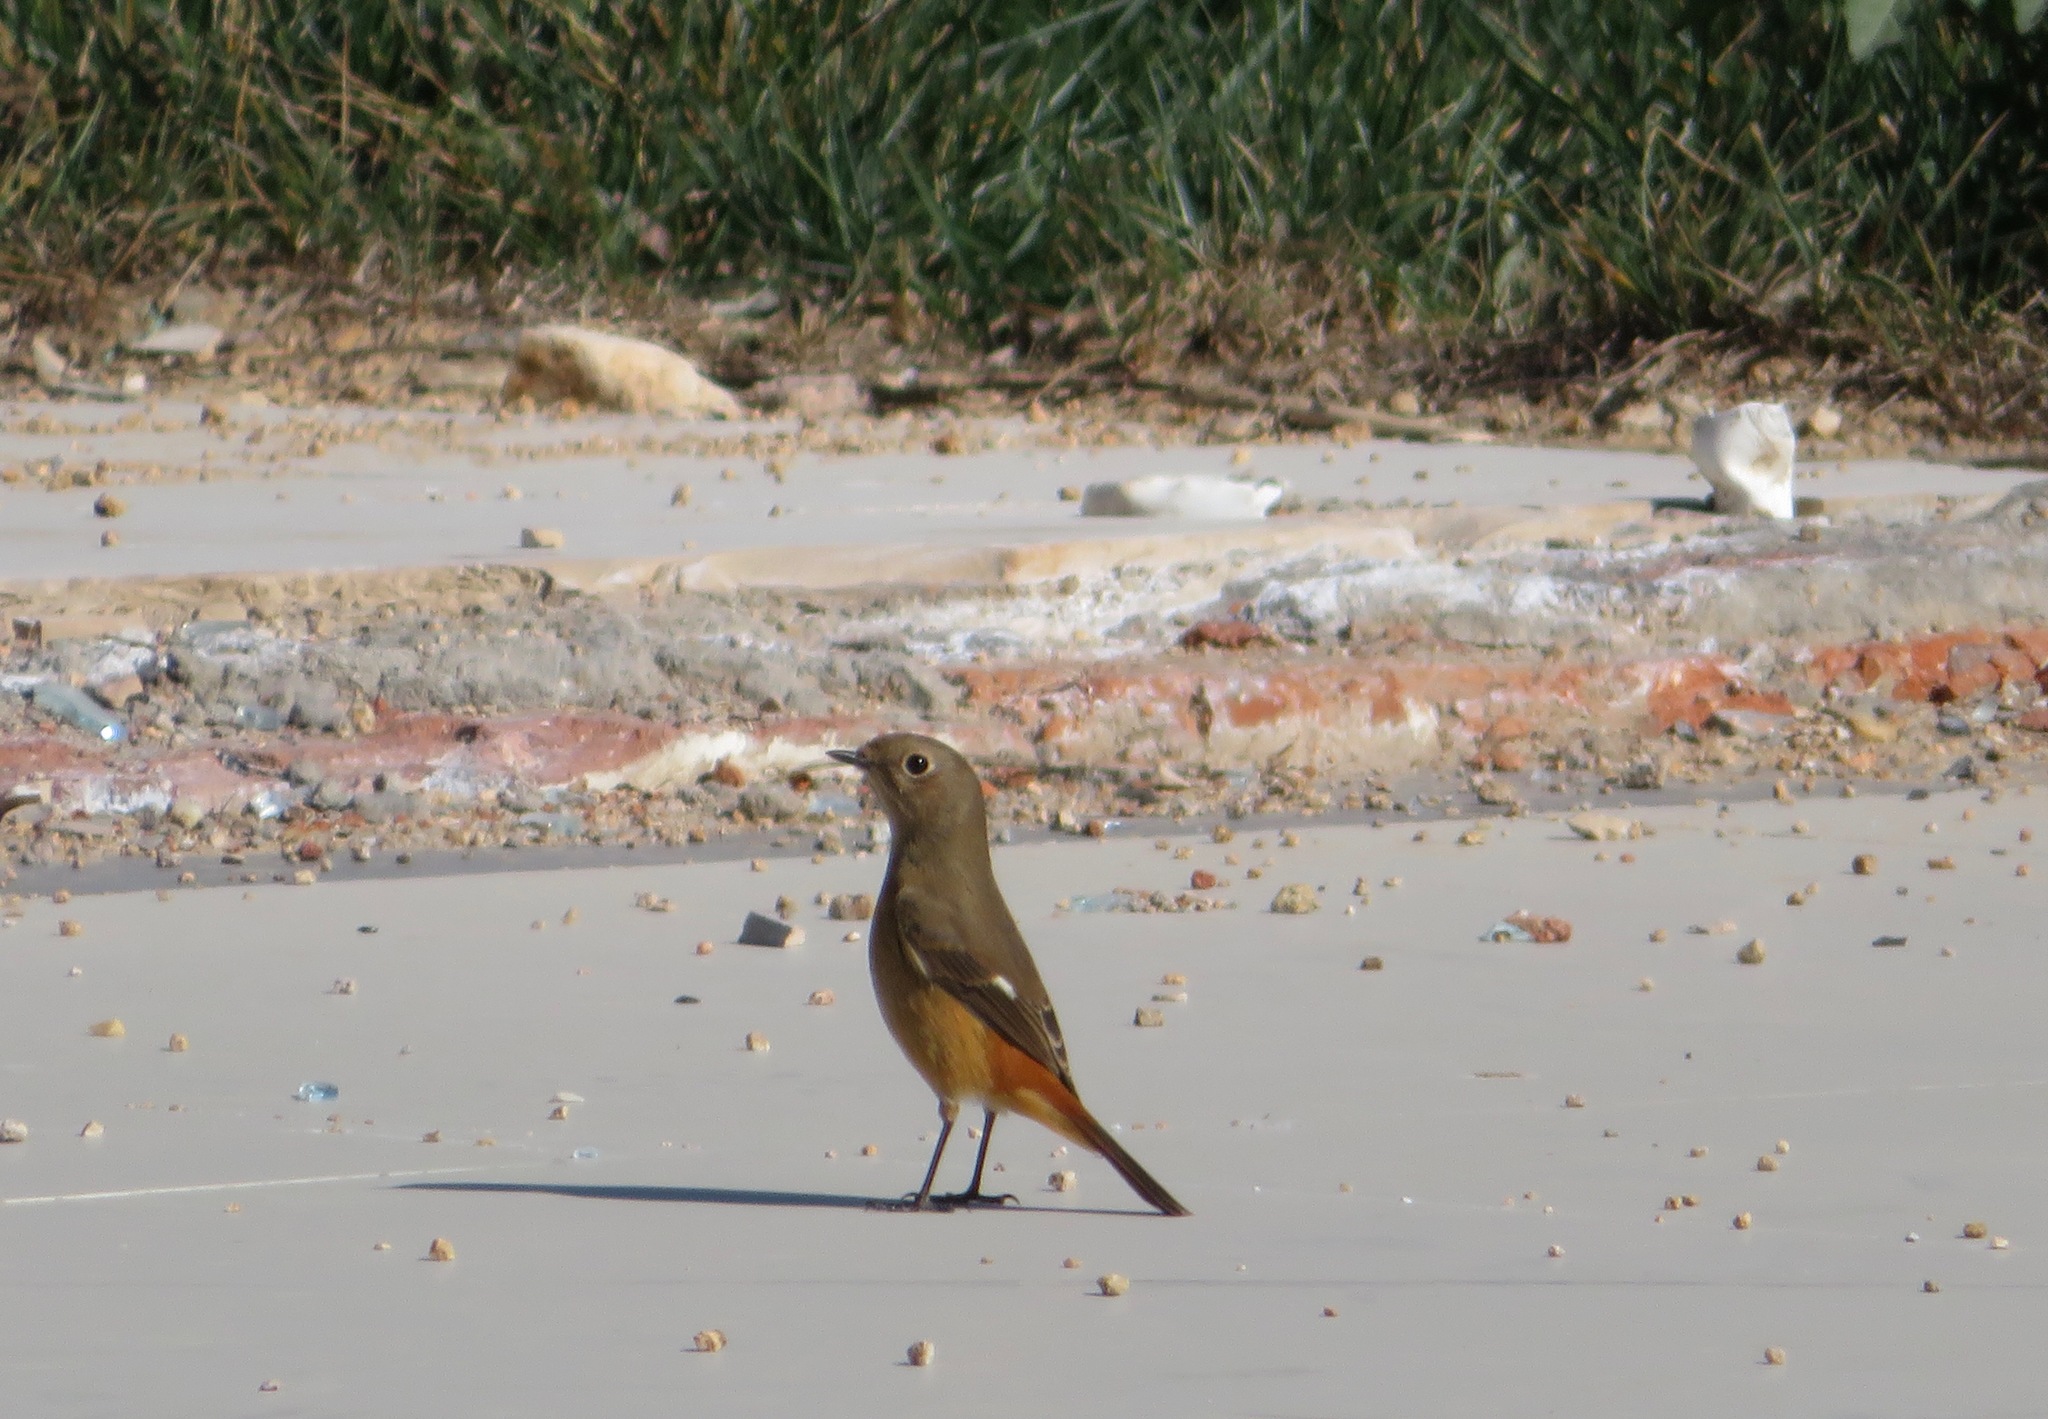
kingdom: Animalia
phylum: Chordata
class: Aves
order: Passeriformes
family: Muscicapidae
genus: Phoenicurus
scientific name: Phoenicurus auroreus
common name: Daurian redstart
